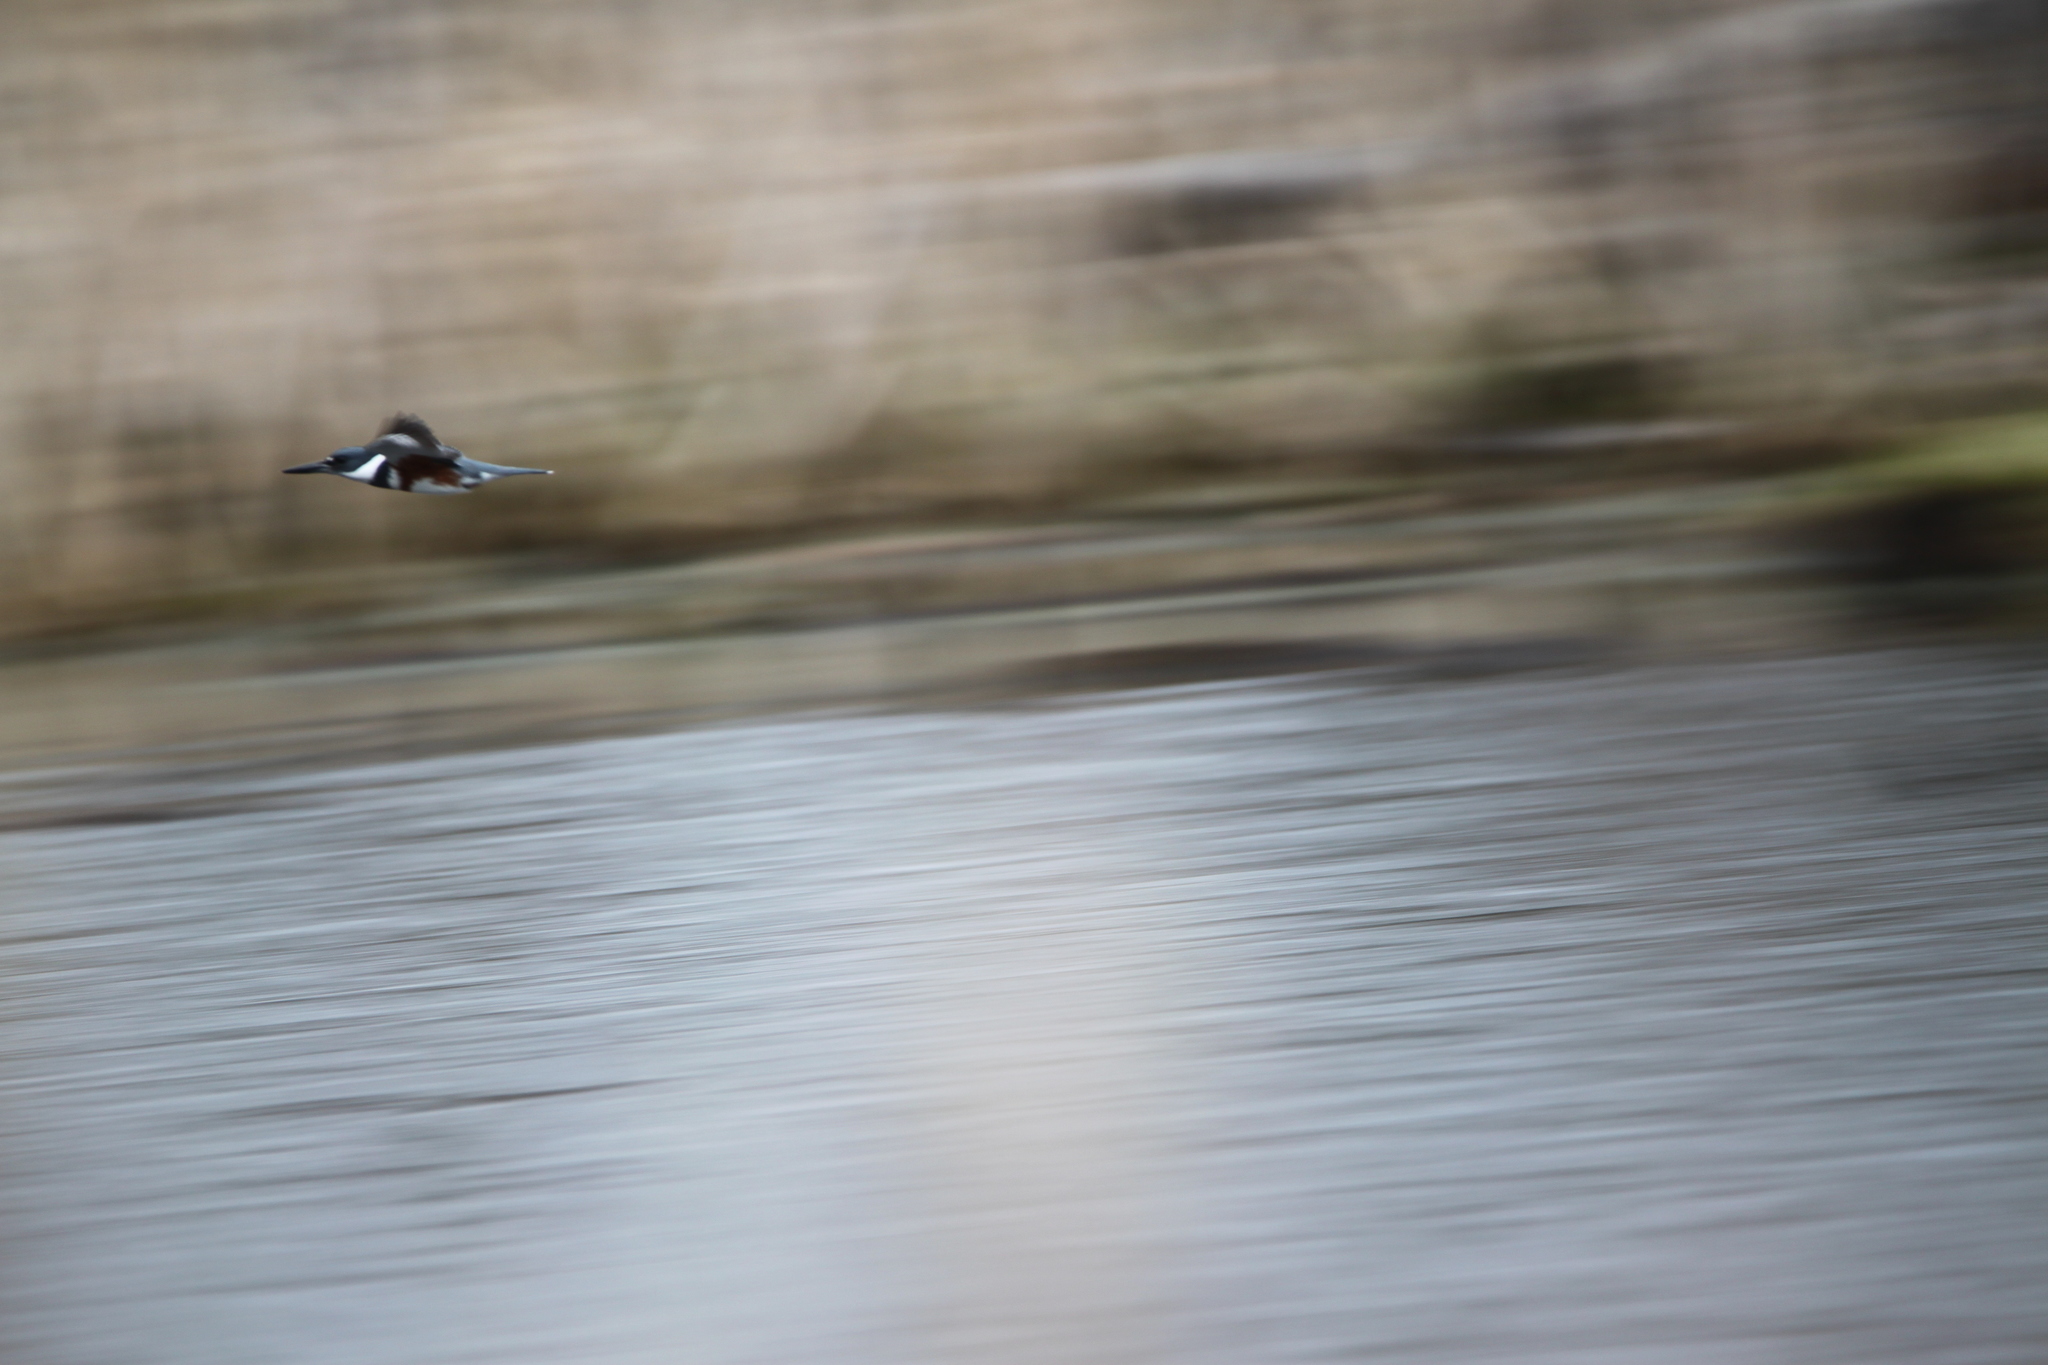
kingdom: Animalia
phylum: Chordata
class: Aves
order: Coraciiformes
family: Alcedinidae
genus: Megaceryle
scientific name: Megaceryle alcyon
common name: Belted kingfisher
